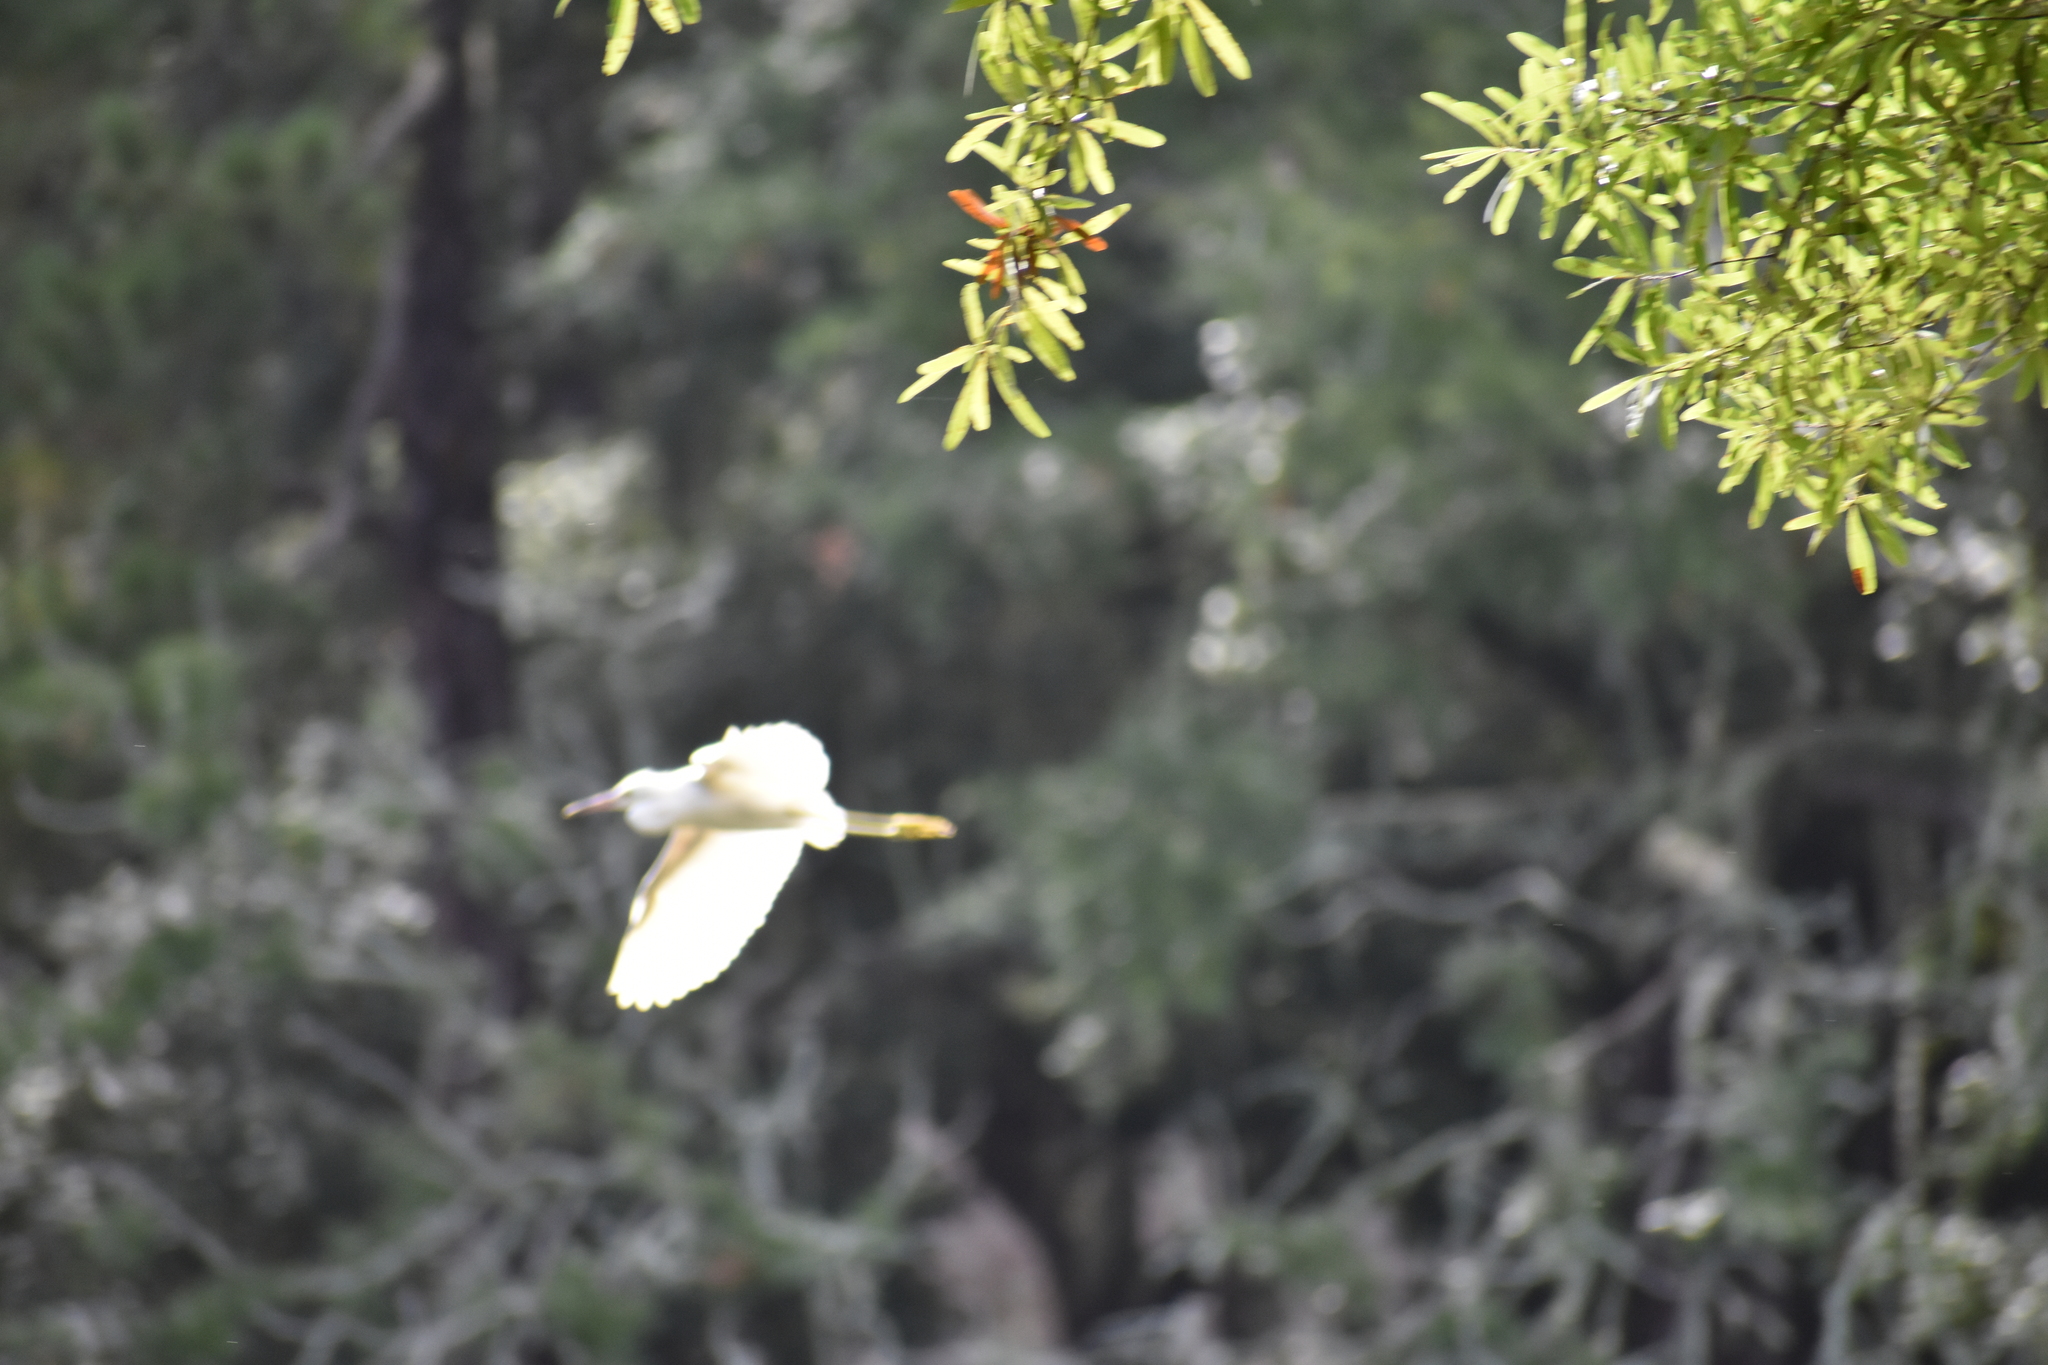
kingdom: Animalia
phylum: Chordata
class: Aves
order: Pelecaniformes
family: Ardeidae
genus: Egretta
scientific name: Egretta thula
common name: Snowy egret
